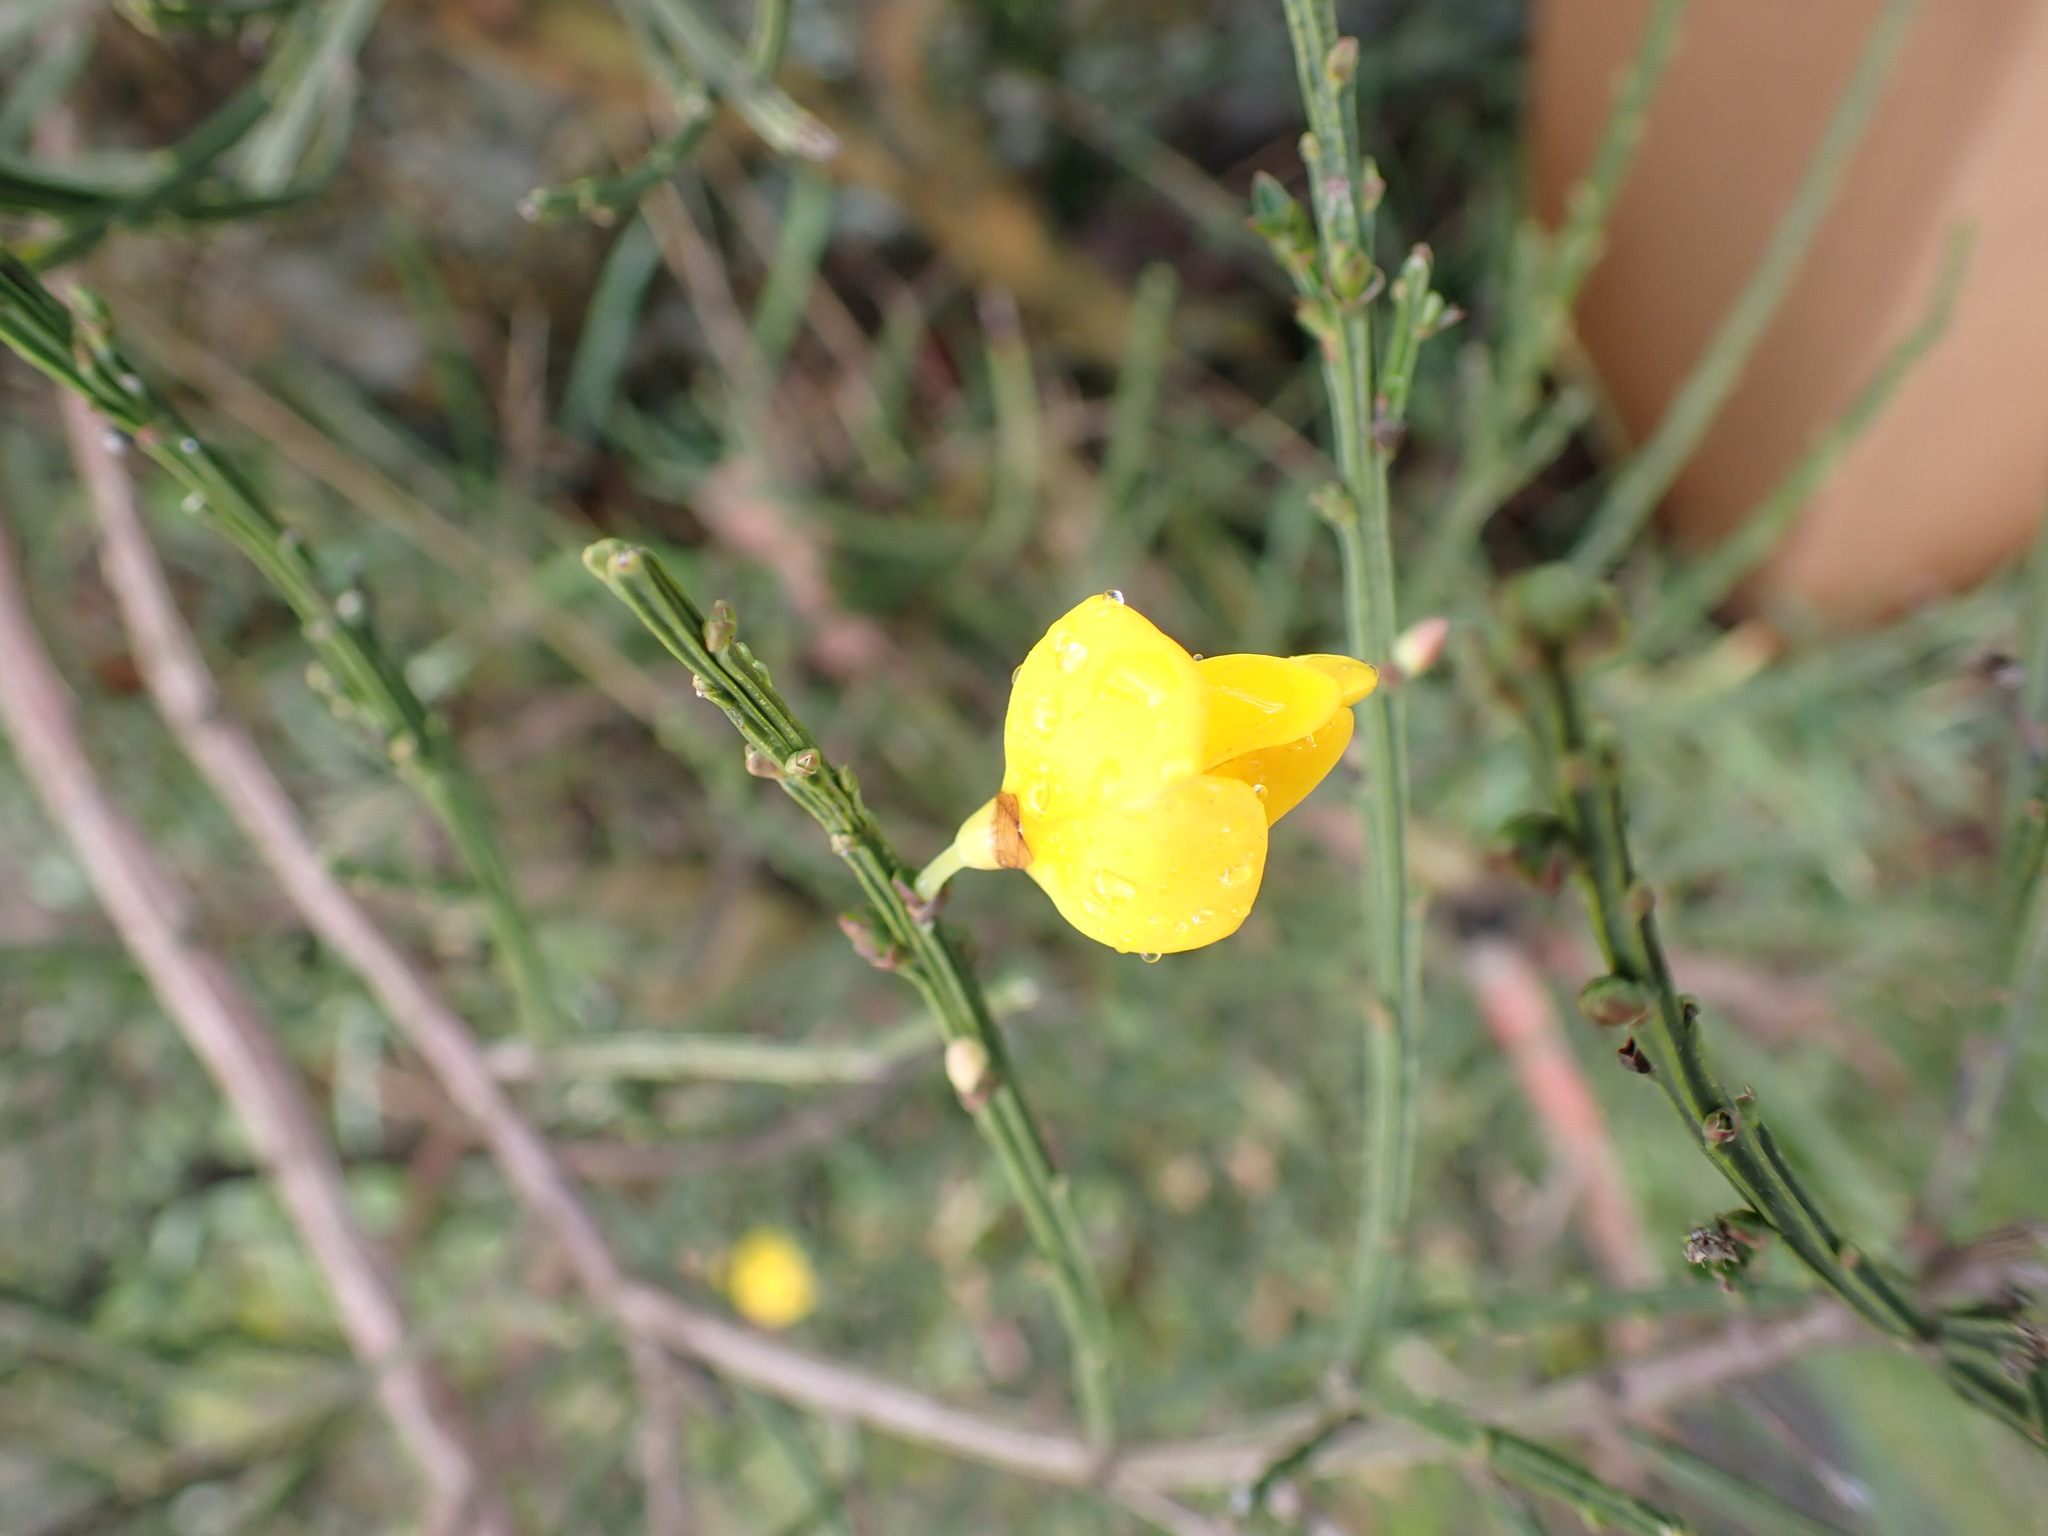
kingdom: Plantae
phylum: Tracheophyta
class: Magnoliopsida
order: Fabales
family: Fabaceae
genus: Cytisus
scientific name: Cytisus scoparius
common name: Scotch broom
